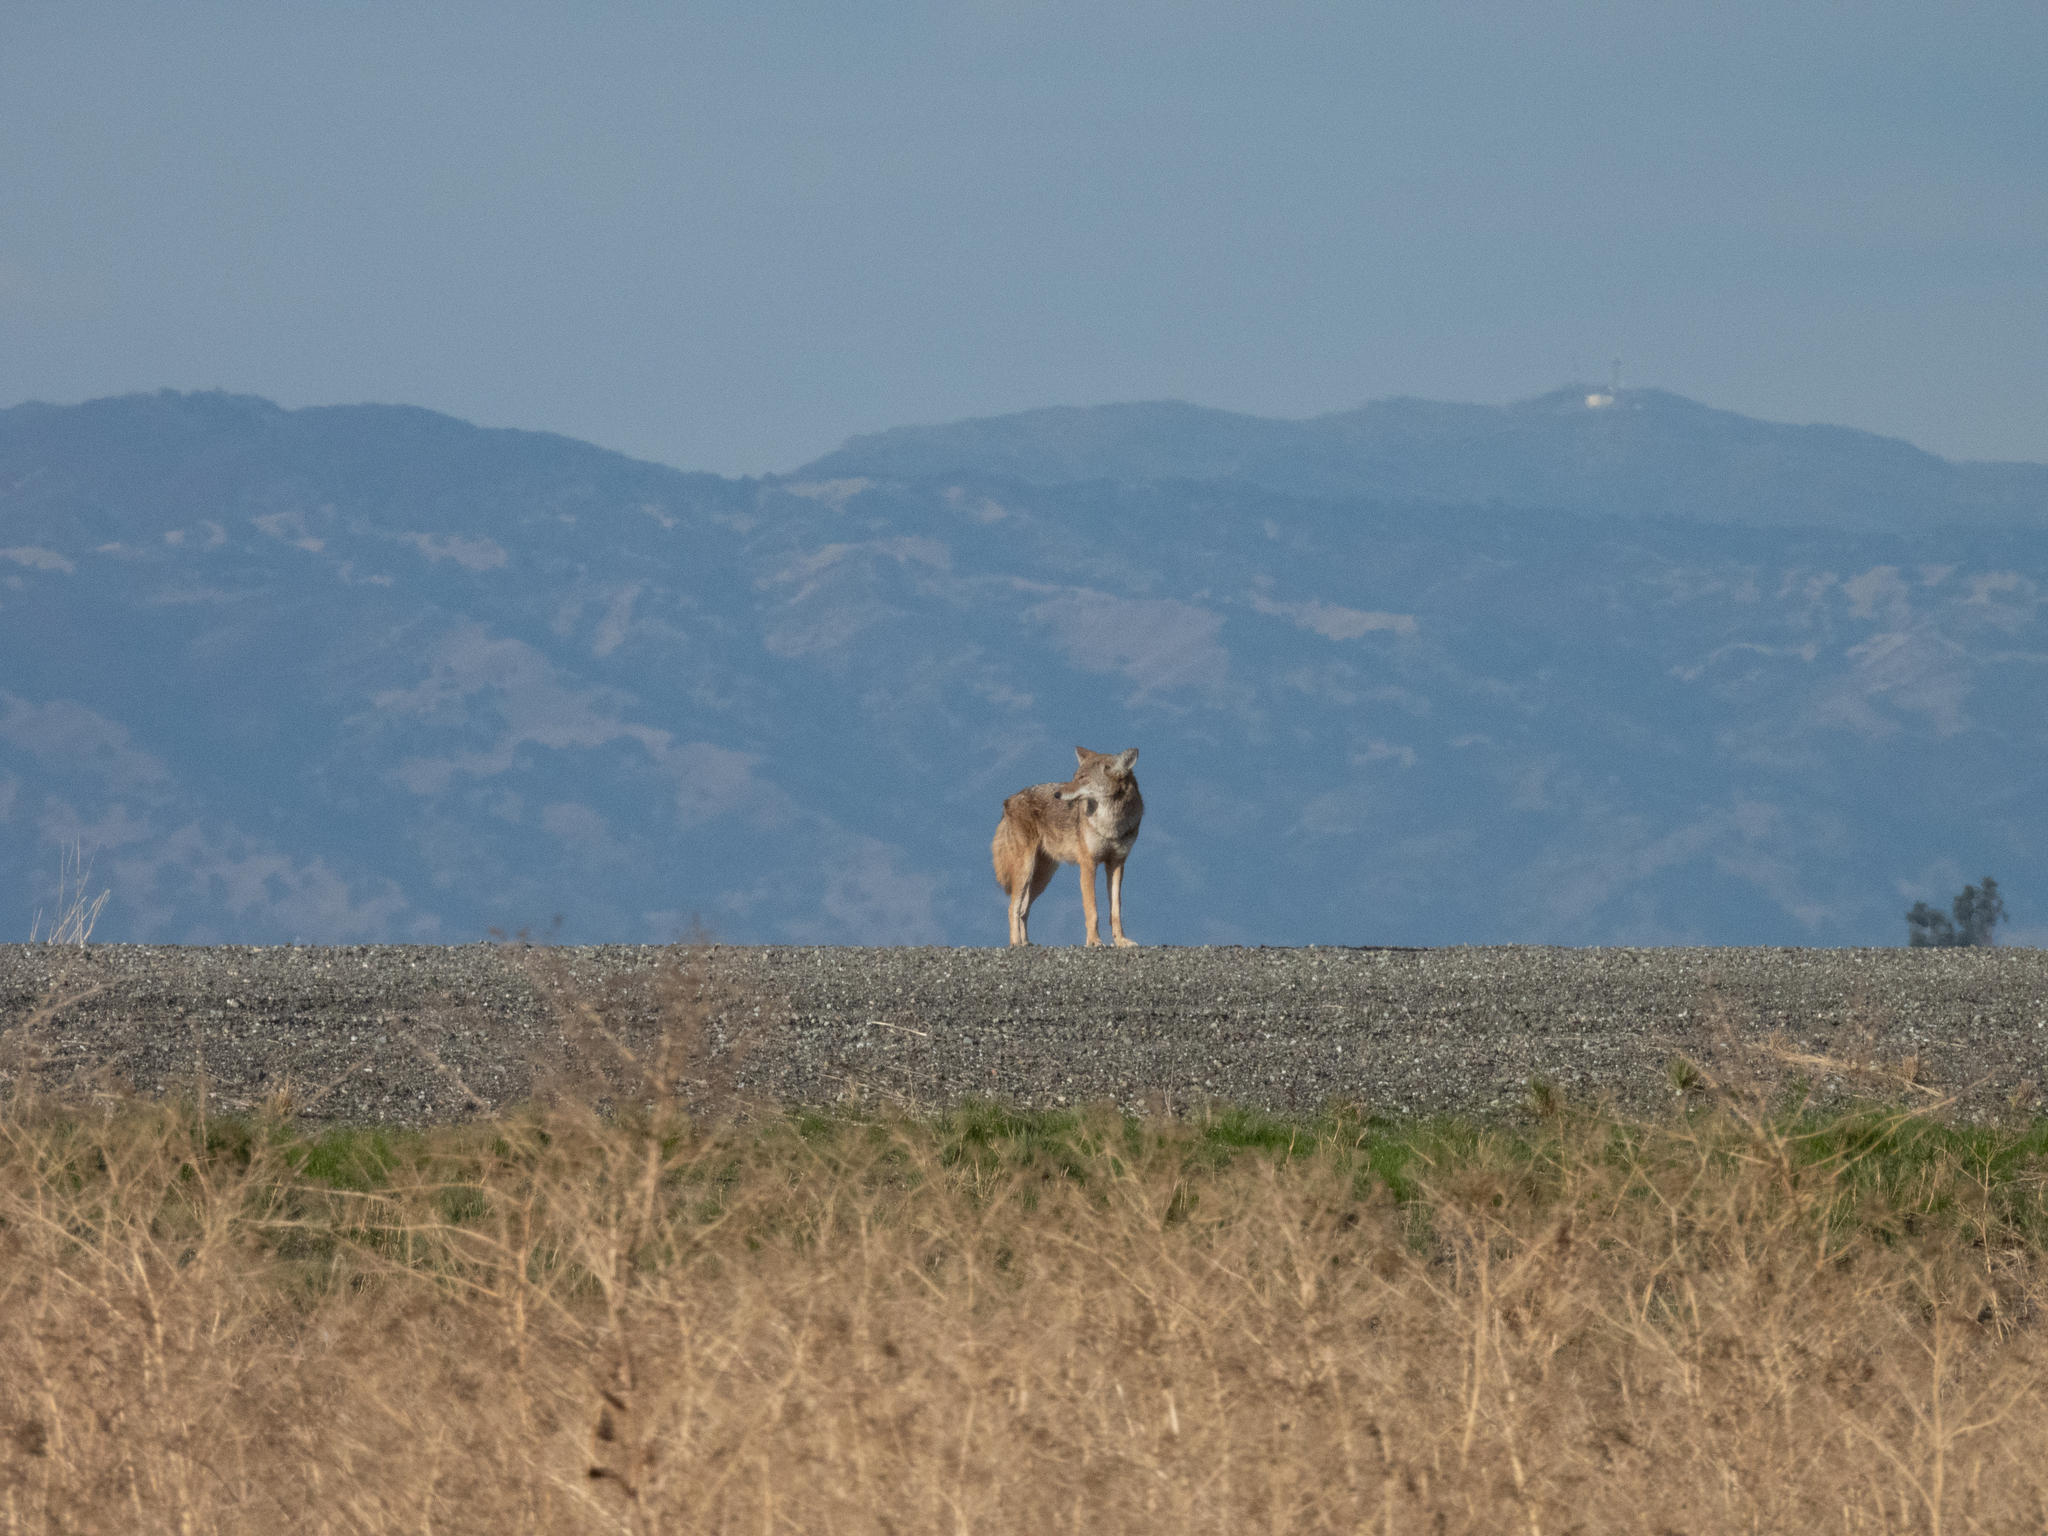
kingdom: Animalia
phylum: Chordata
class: Mammalia
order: Carnivora
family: Canidae
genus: Canis
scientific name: Canis latrans
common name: Coyote
